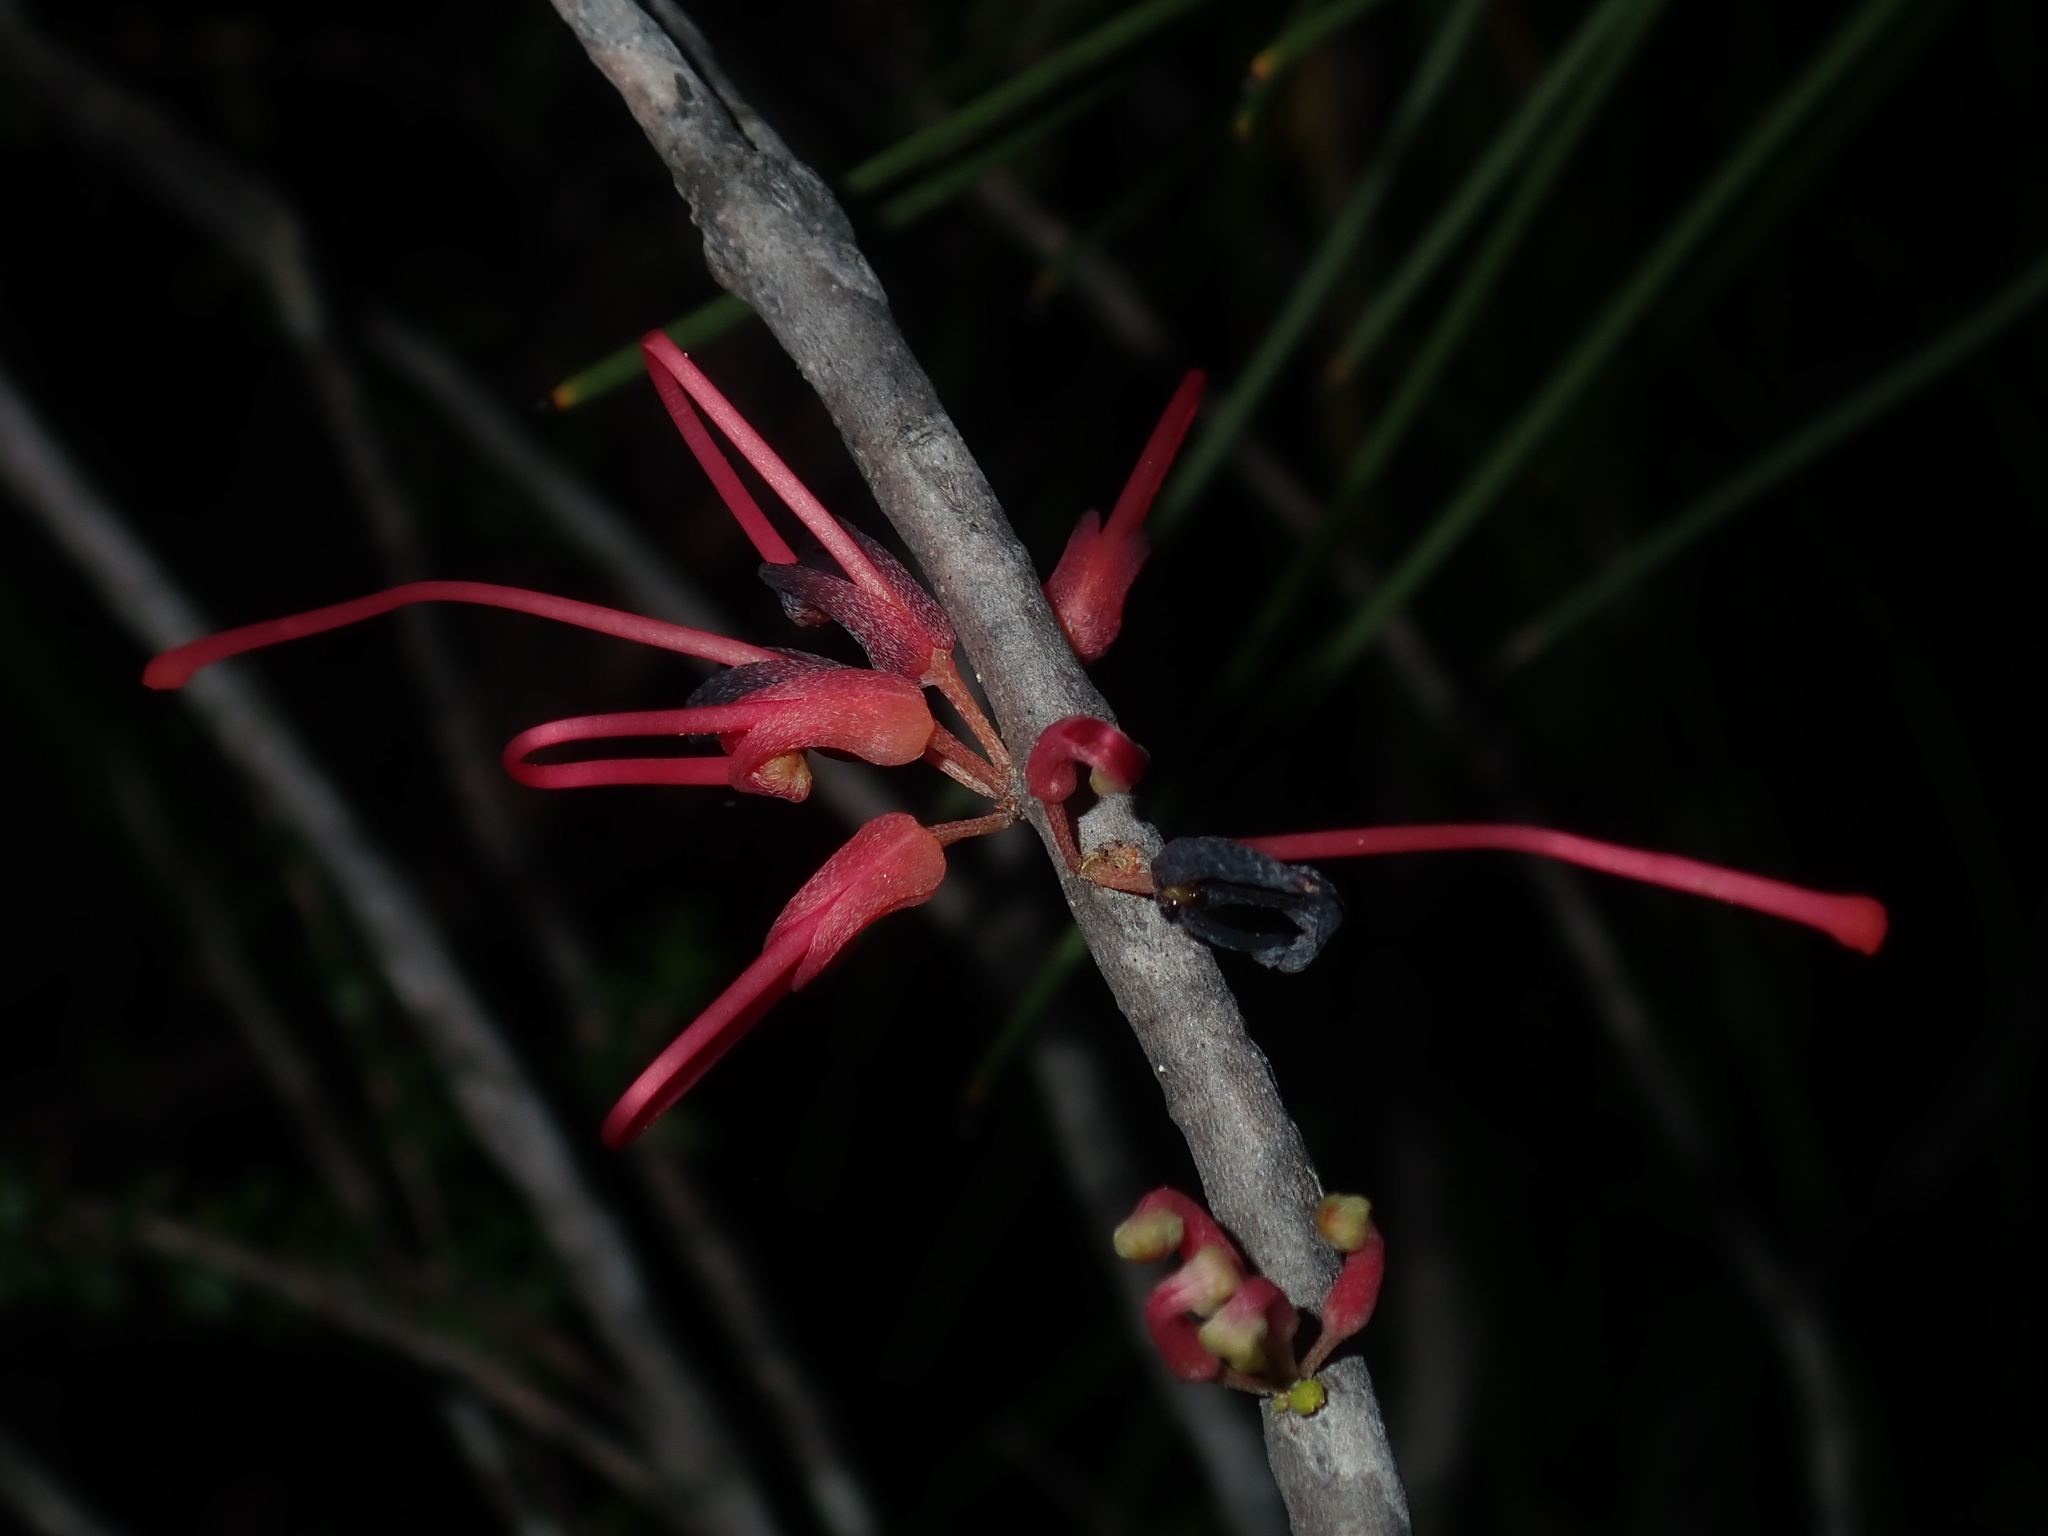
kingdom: Plantae
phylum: Tracheophyta
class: Magnoliopsida
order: Proteales
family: Proteaceae
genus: Hakea
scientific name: Hakea orthorrhyncha
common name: Bird beak hakea
